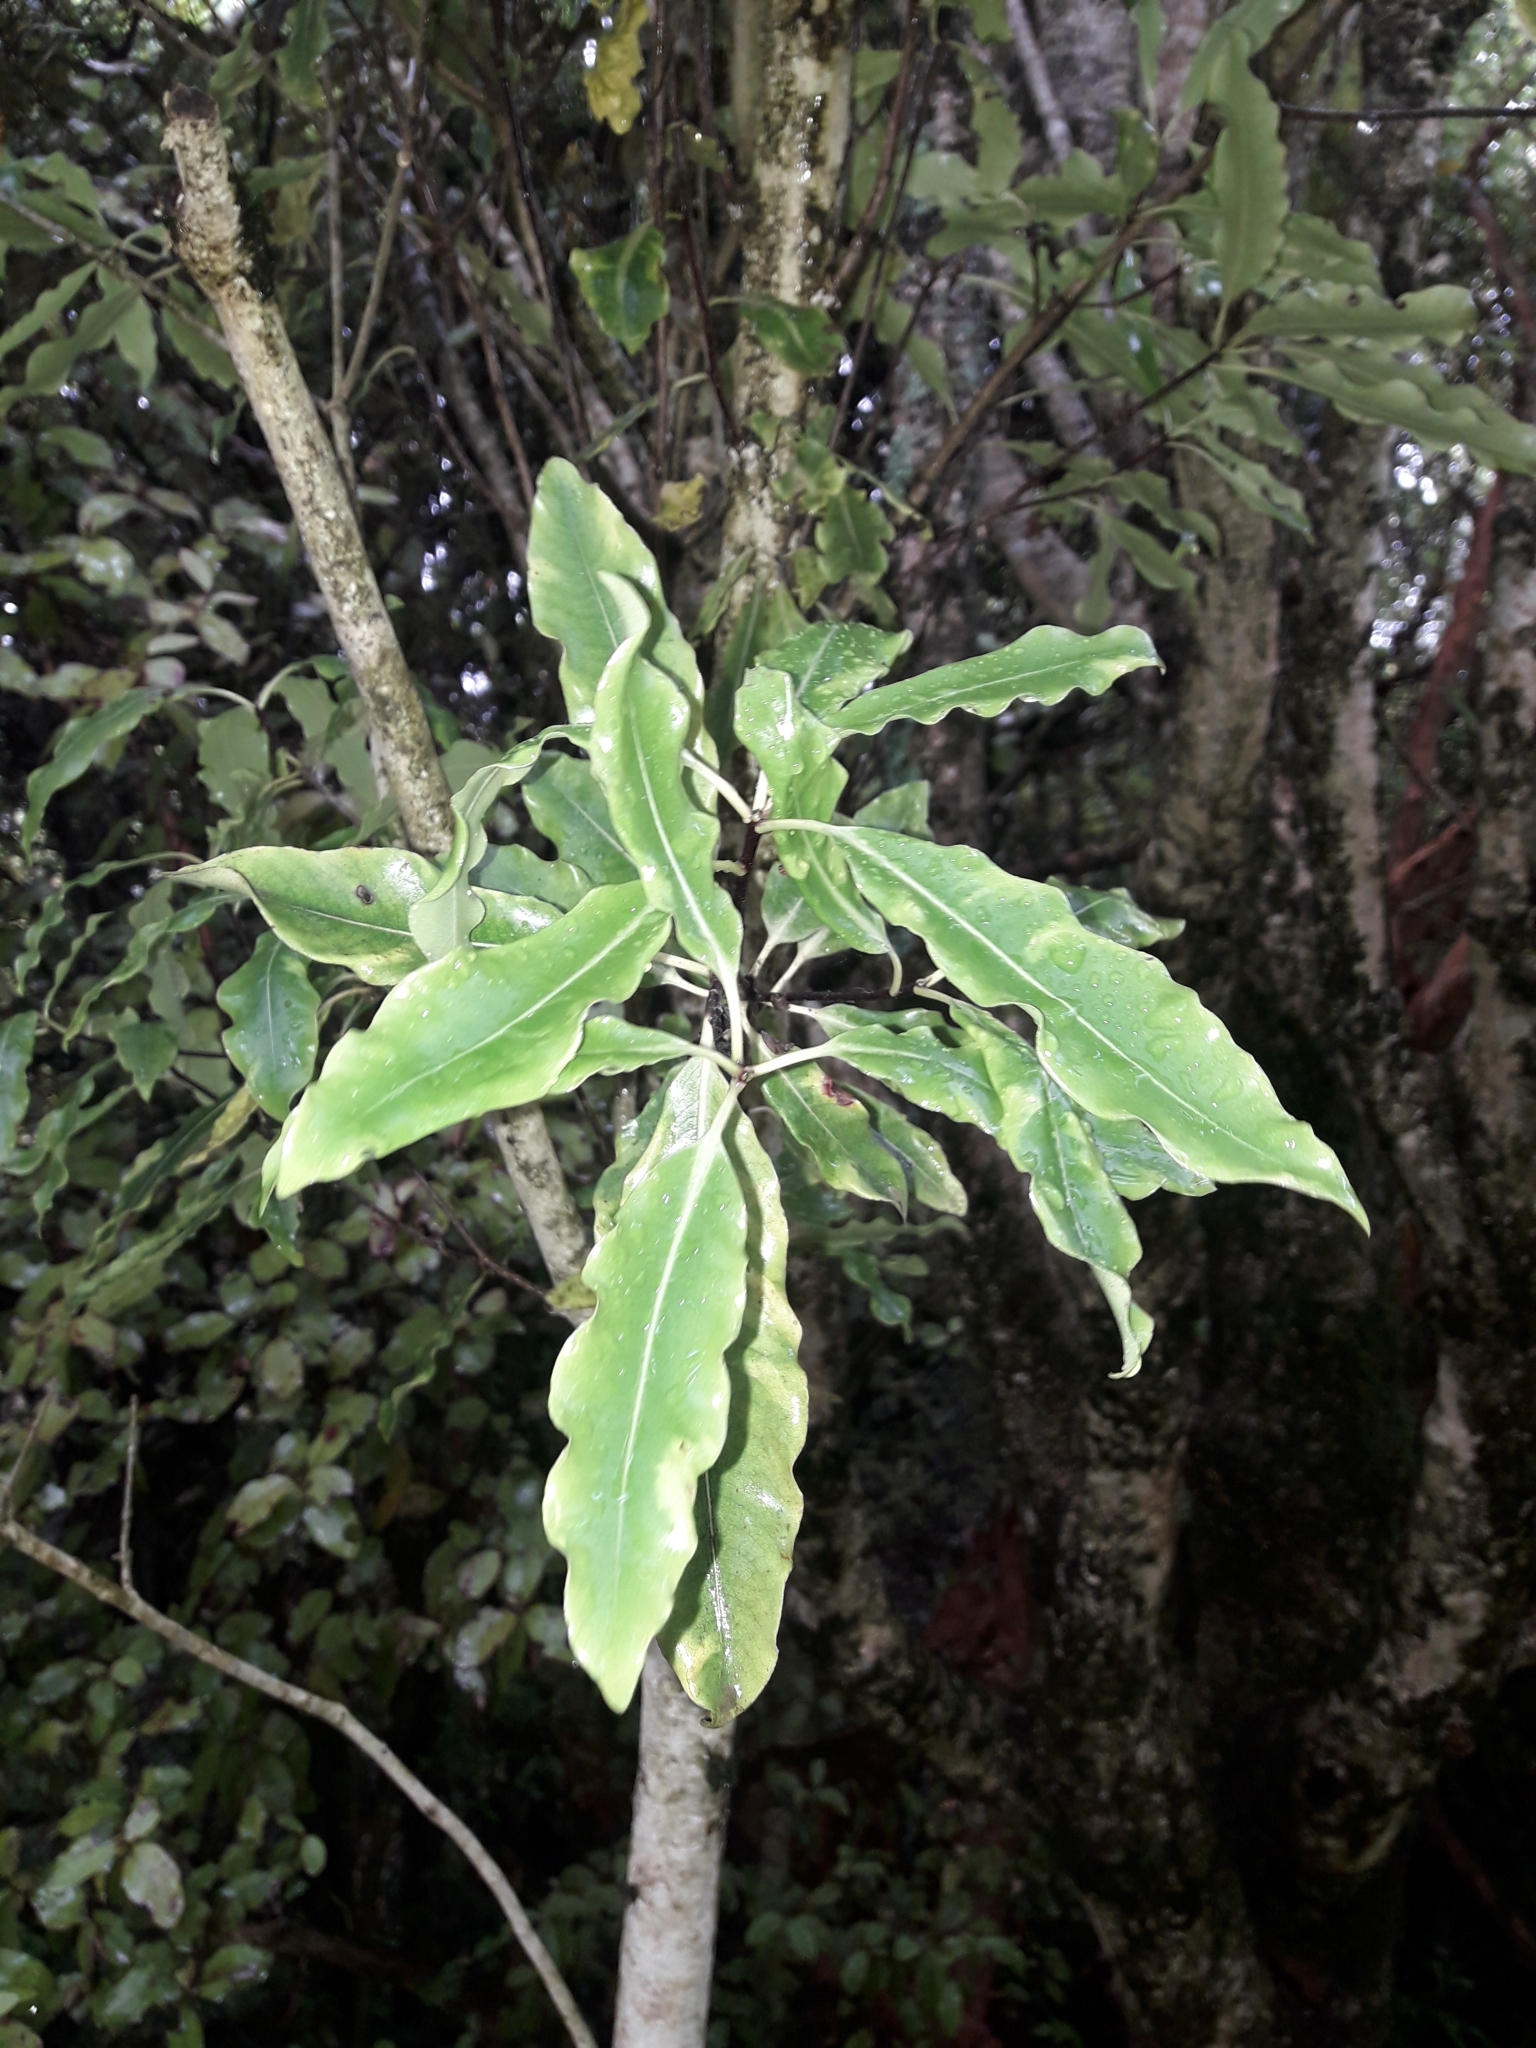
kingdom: Plantae
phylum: Tracheophyta
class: Magnoliopsida
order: Apiales
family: Pittosporaceae
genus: Pittosporum
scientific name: Pittosporum eugenioides
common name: Lemonwood
